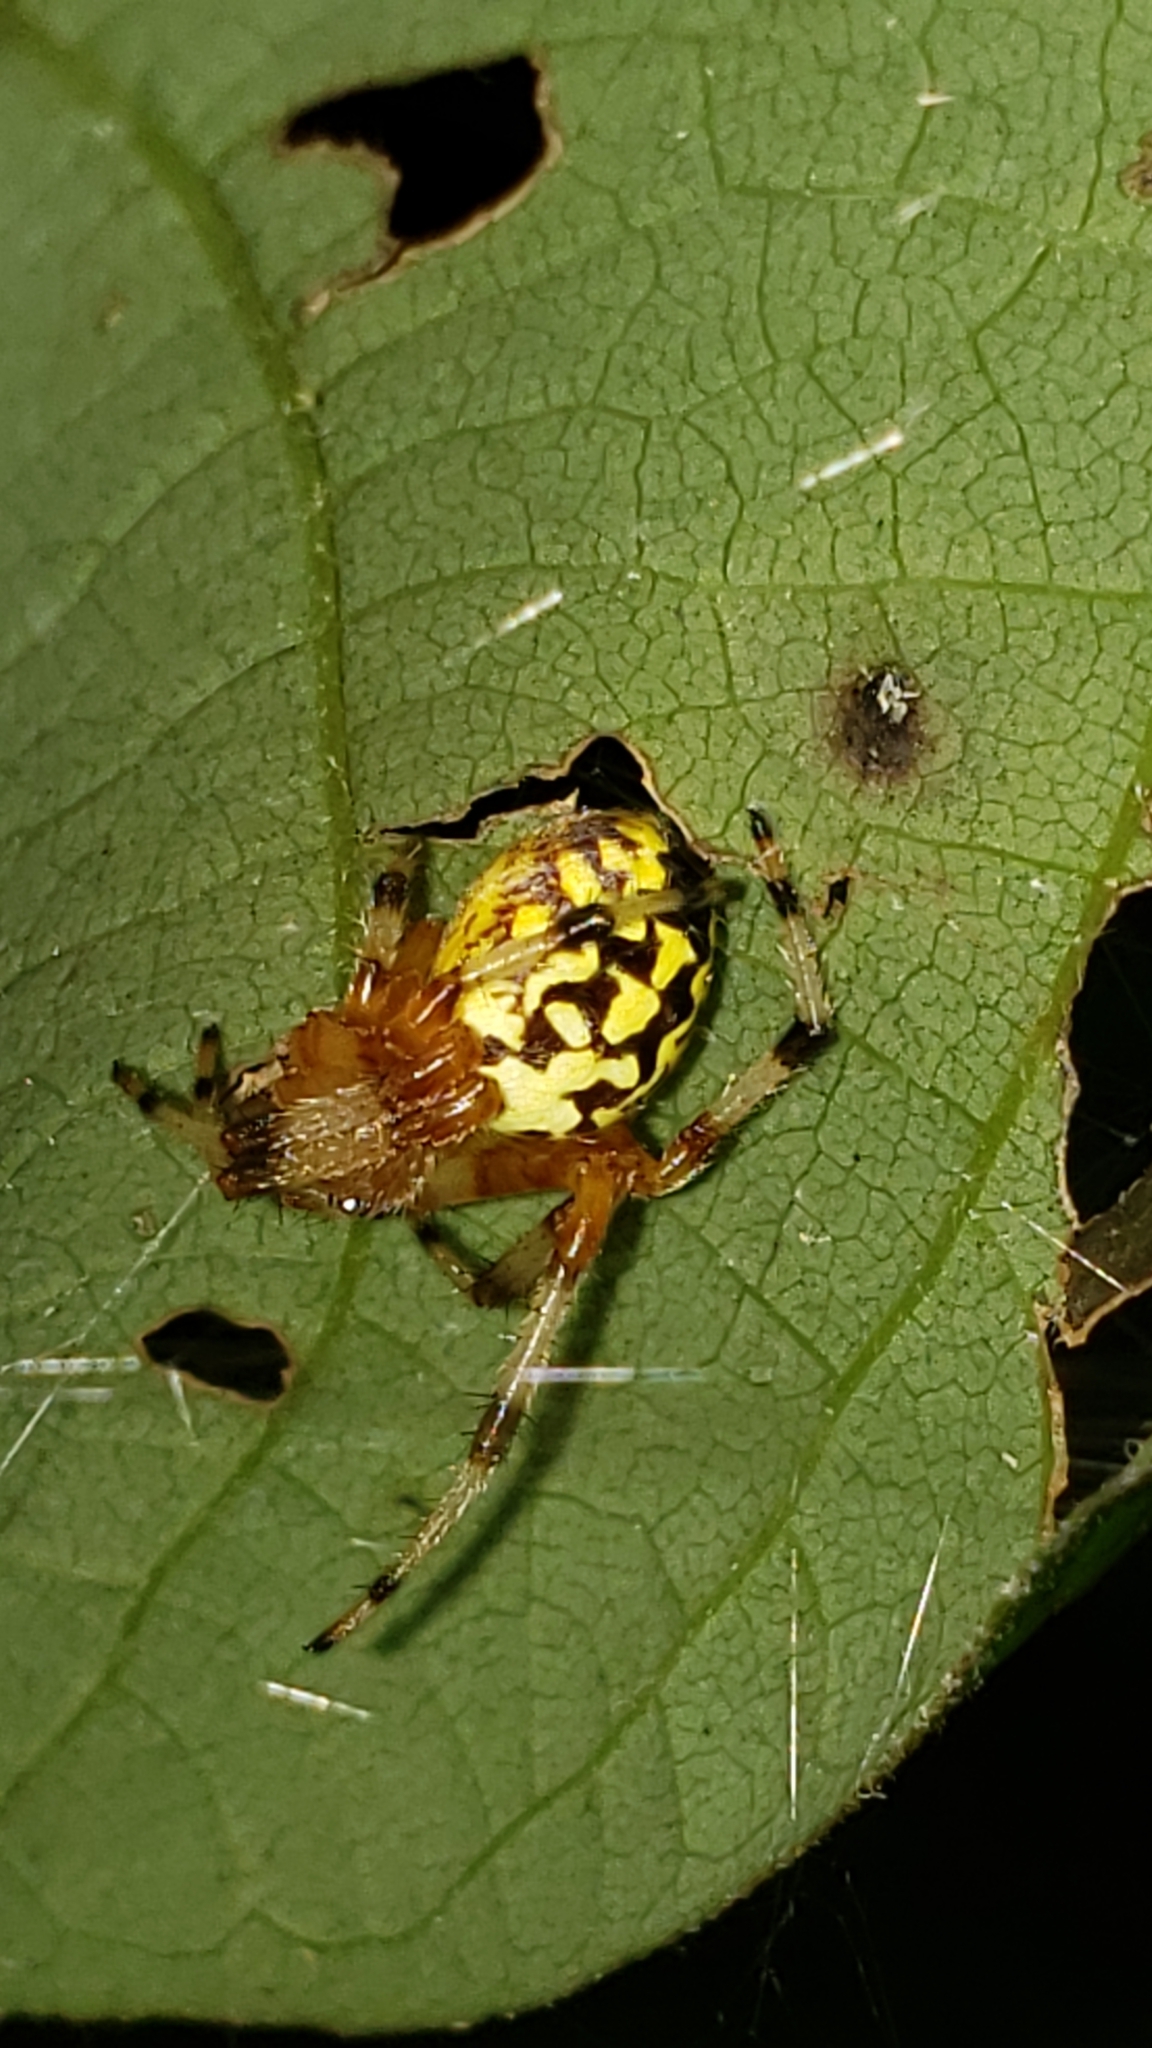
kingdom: Animalia
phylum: Arthropoda
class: Arachnida
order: Araneae
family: Araneidae
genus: Araneus
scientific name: Araneus marmoreus
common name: Marbled orbweaver
